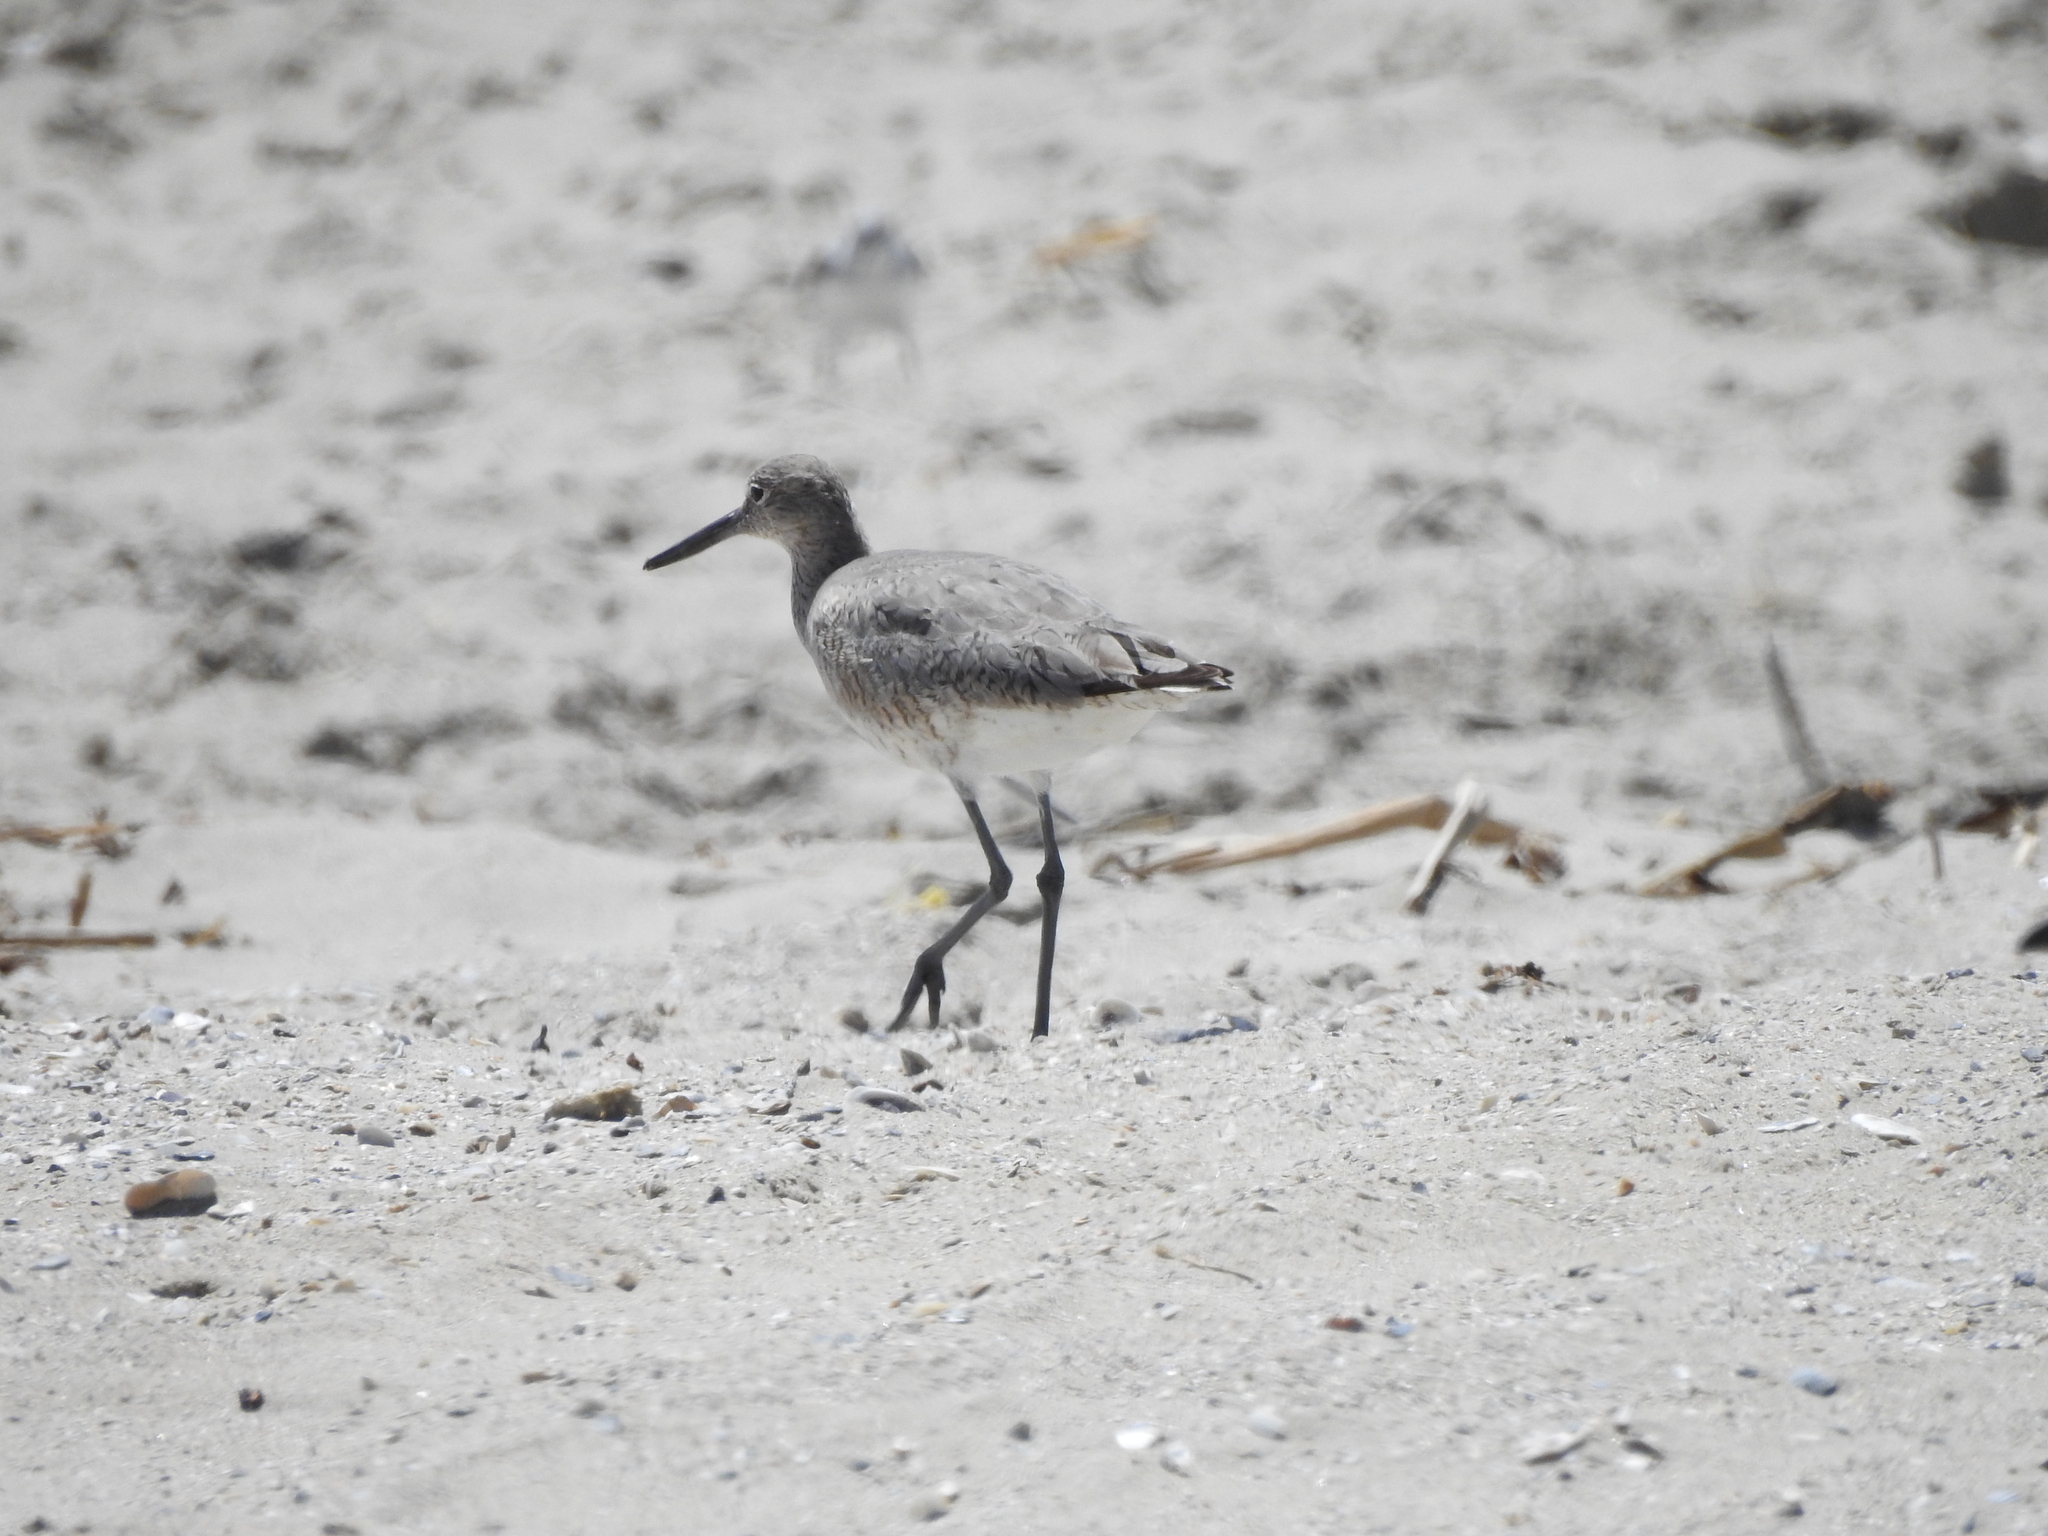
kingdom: Animalia
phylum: Chordata
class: Aves
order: Charadriiformes
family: Scolopacidae
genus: Tringa
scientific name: Tringa semipalmata
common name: Willet
